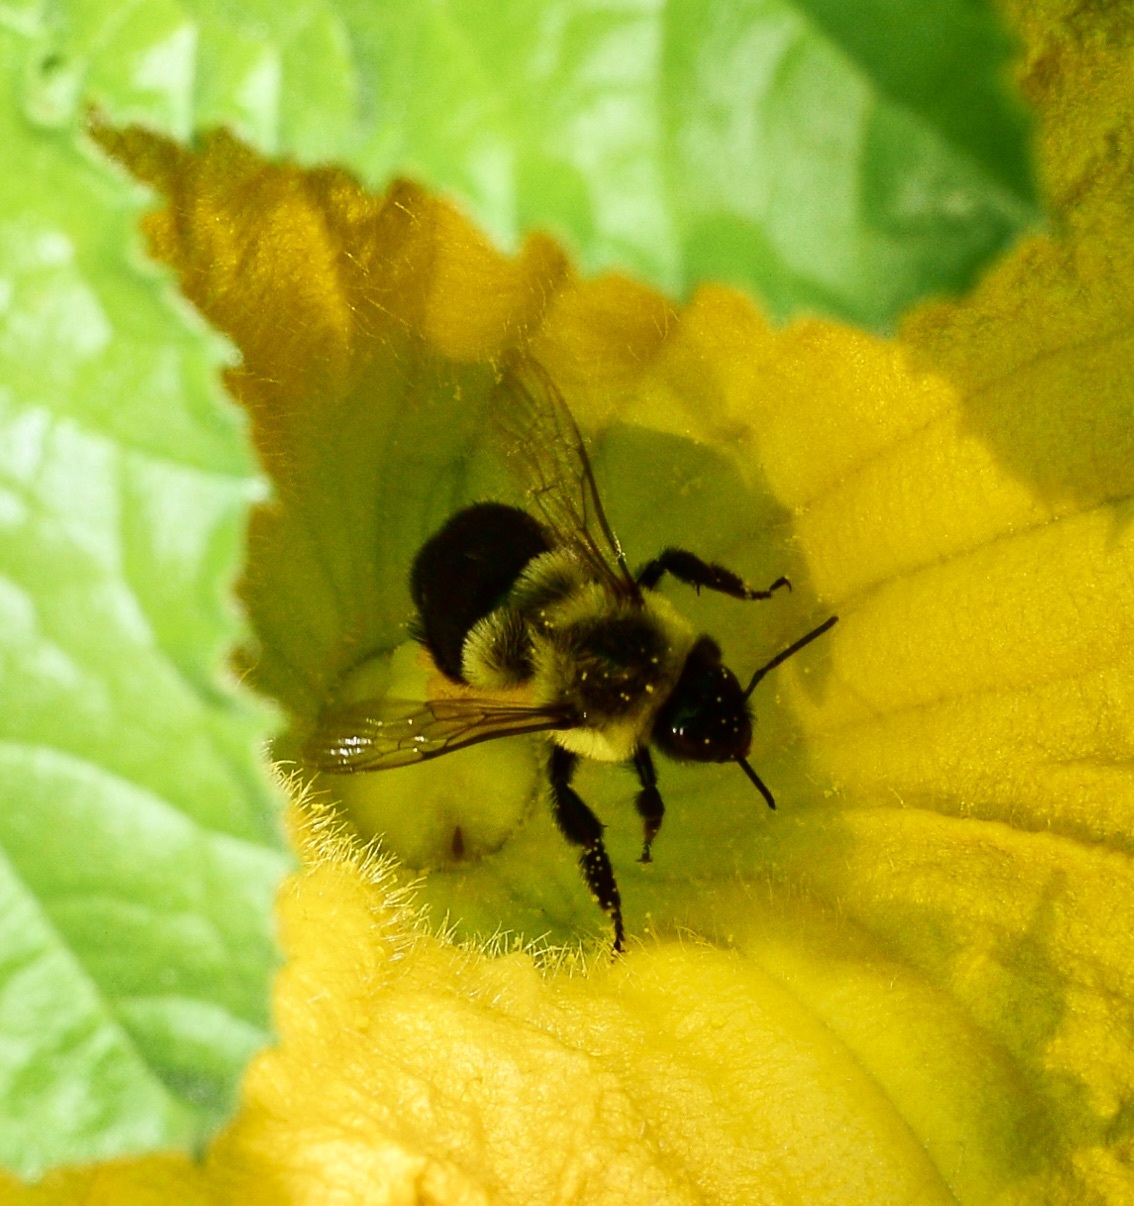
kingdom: Animalia
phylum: Arthropoda
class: Insecta
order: Hymenoptera
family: Apidae
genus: Bombus
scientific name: Bombus impatiens
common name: Common eastern bumble bee
